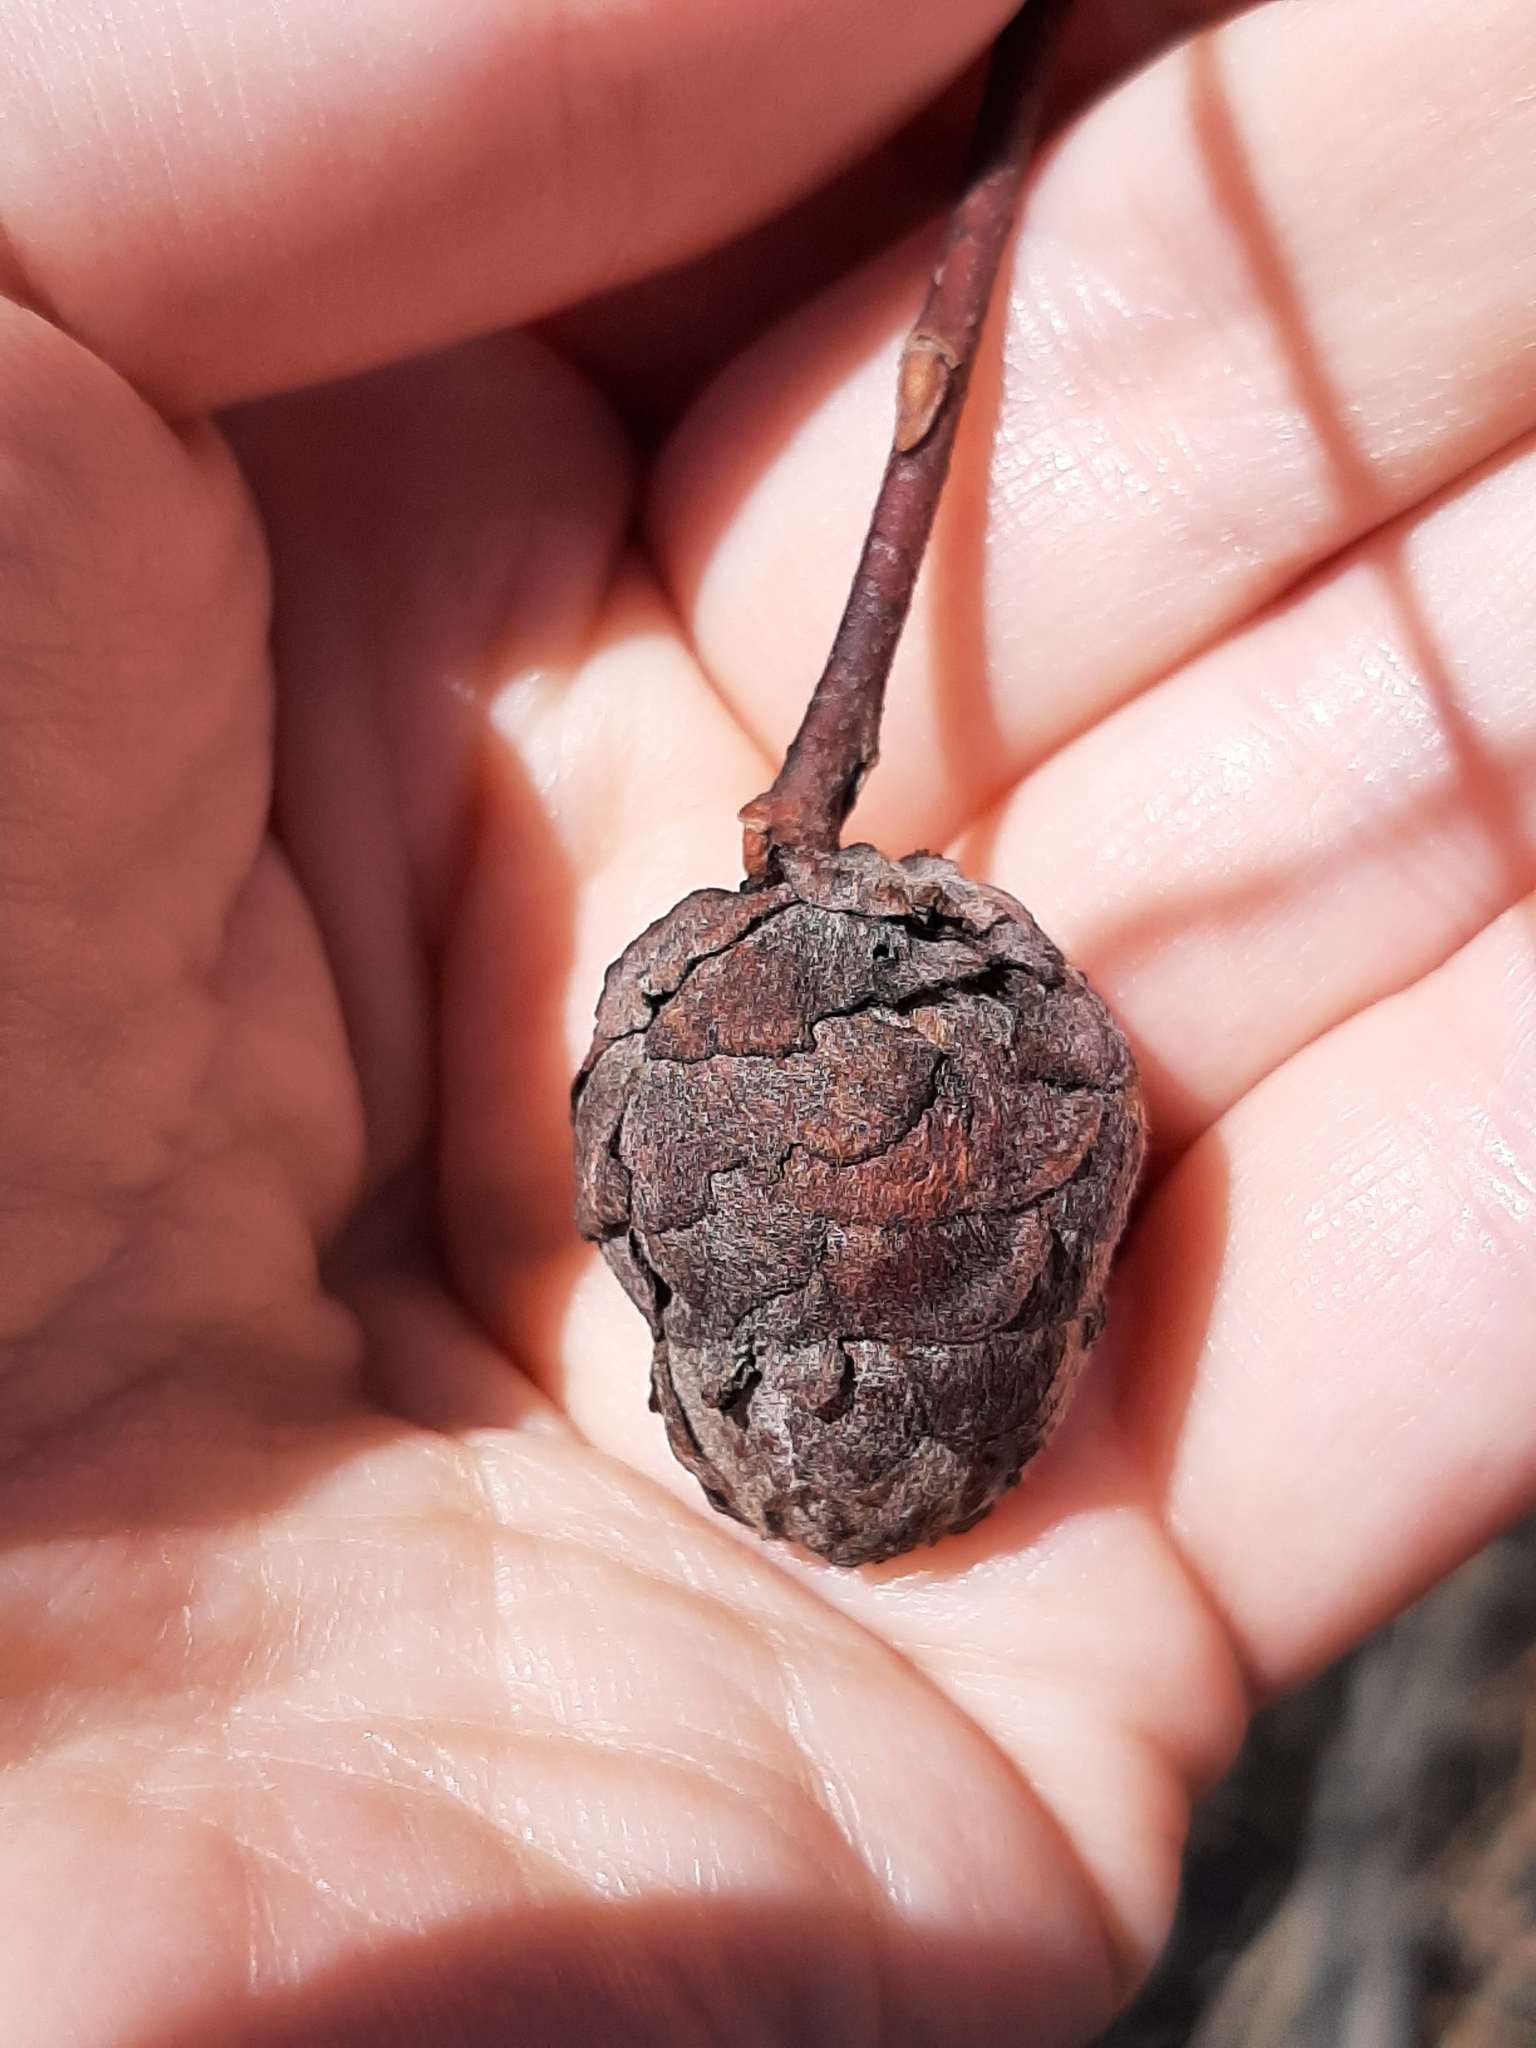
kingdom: Animalia
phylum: Arthropoda
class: Insecta
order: Diptera
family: Cecidomyiidae
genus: Rabdophaga
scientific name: Rabdophaga strobiloides
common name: Willow pinecone gall midge
